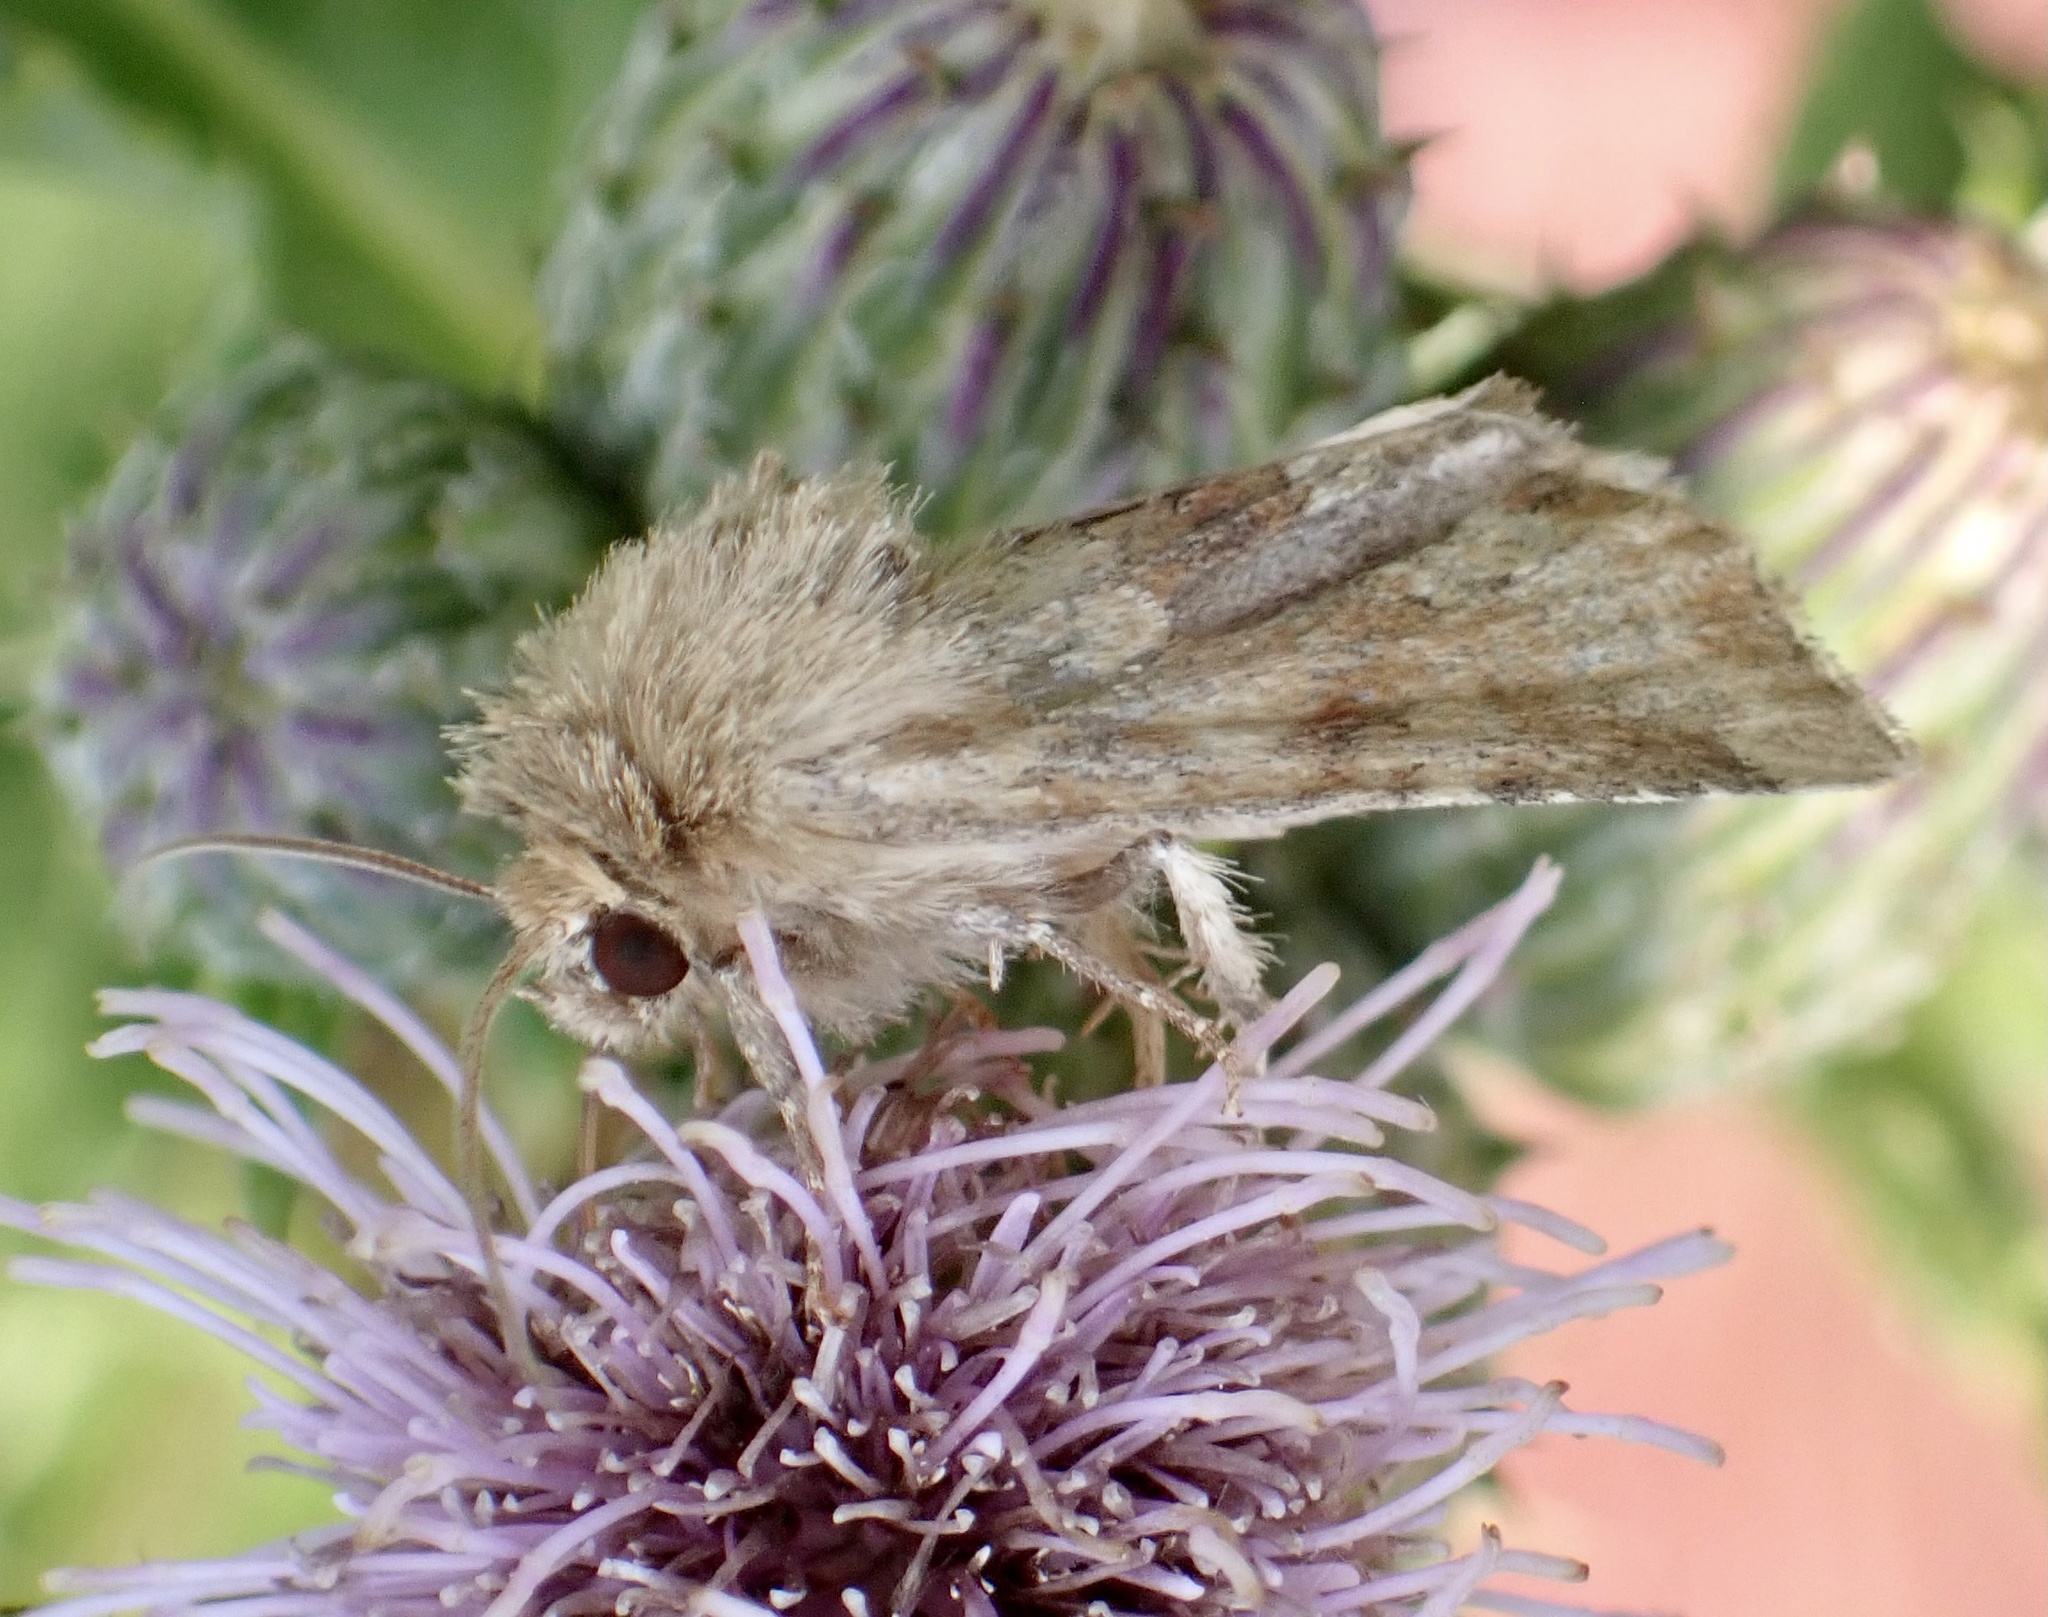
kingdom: Animalia
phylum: Arthropoda
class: Insecta
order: Lepidoptera
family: Noctuidae
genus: Oligia
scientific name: Oligia fasciuncula
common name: Middle-barred minor
